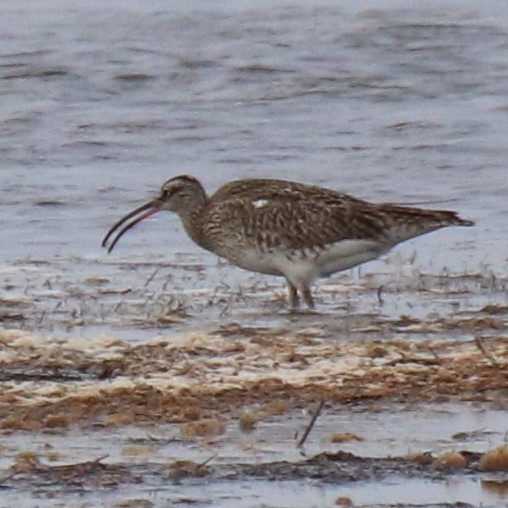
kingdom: Animalia
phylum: Chordata
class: Aves
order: Charadriiformes
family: Scolopacidae
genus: Numenius
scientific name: Numenius phaeopus
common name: Whimbrel
